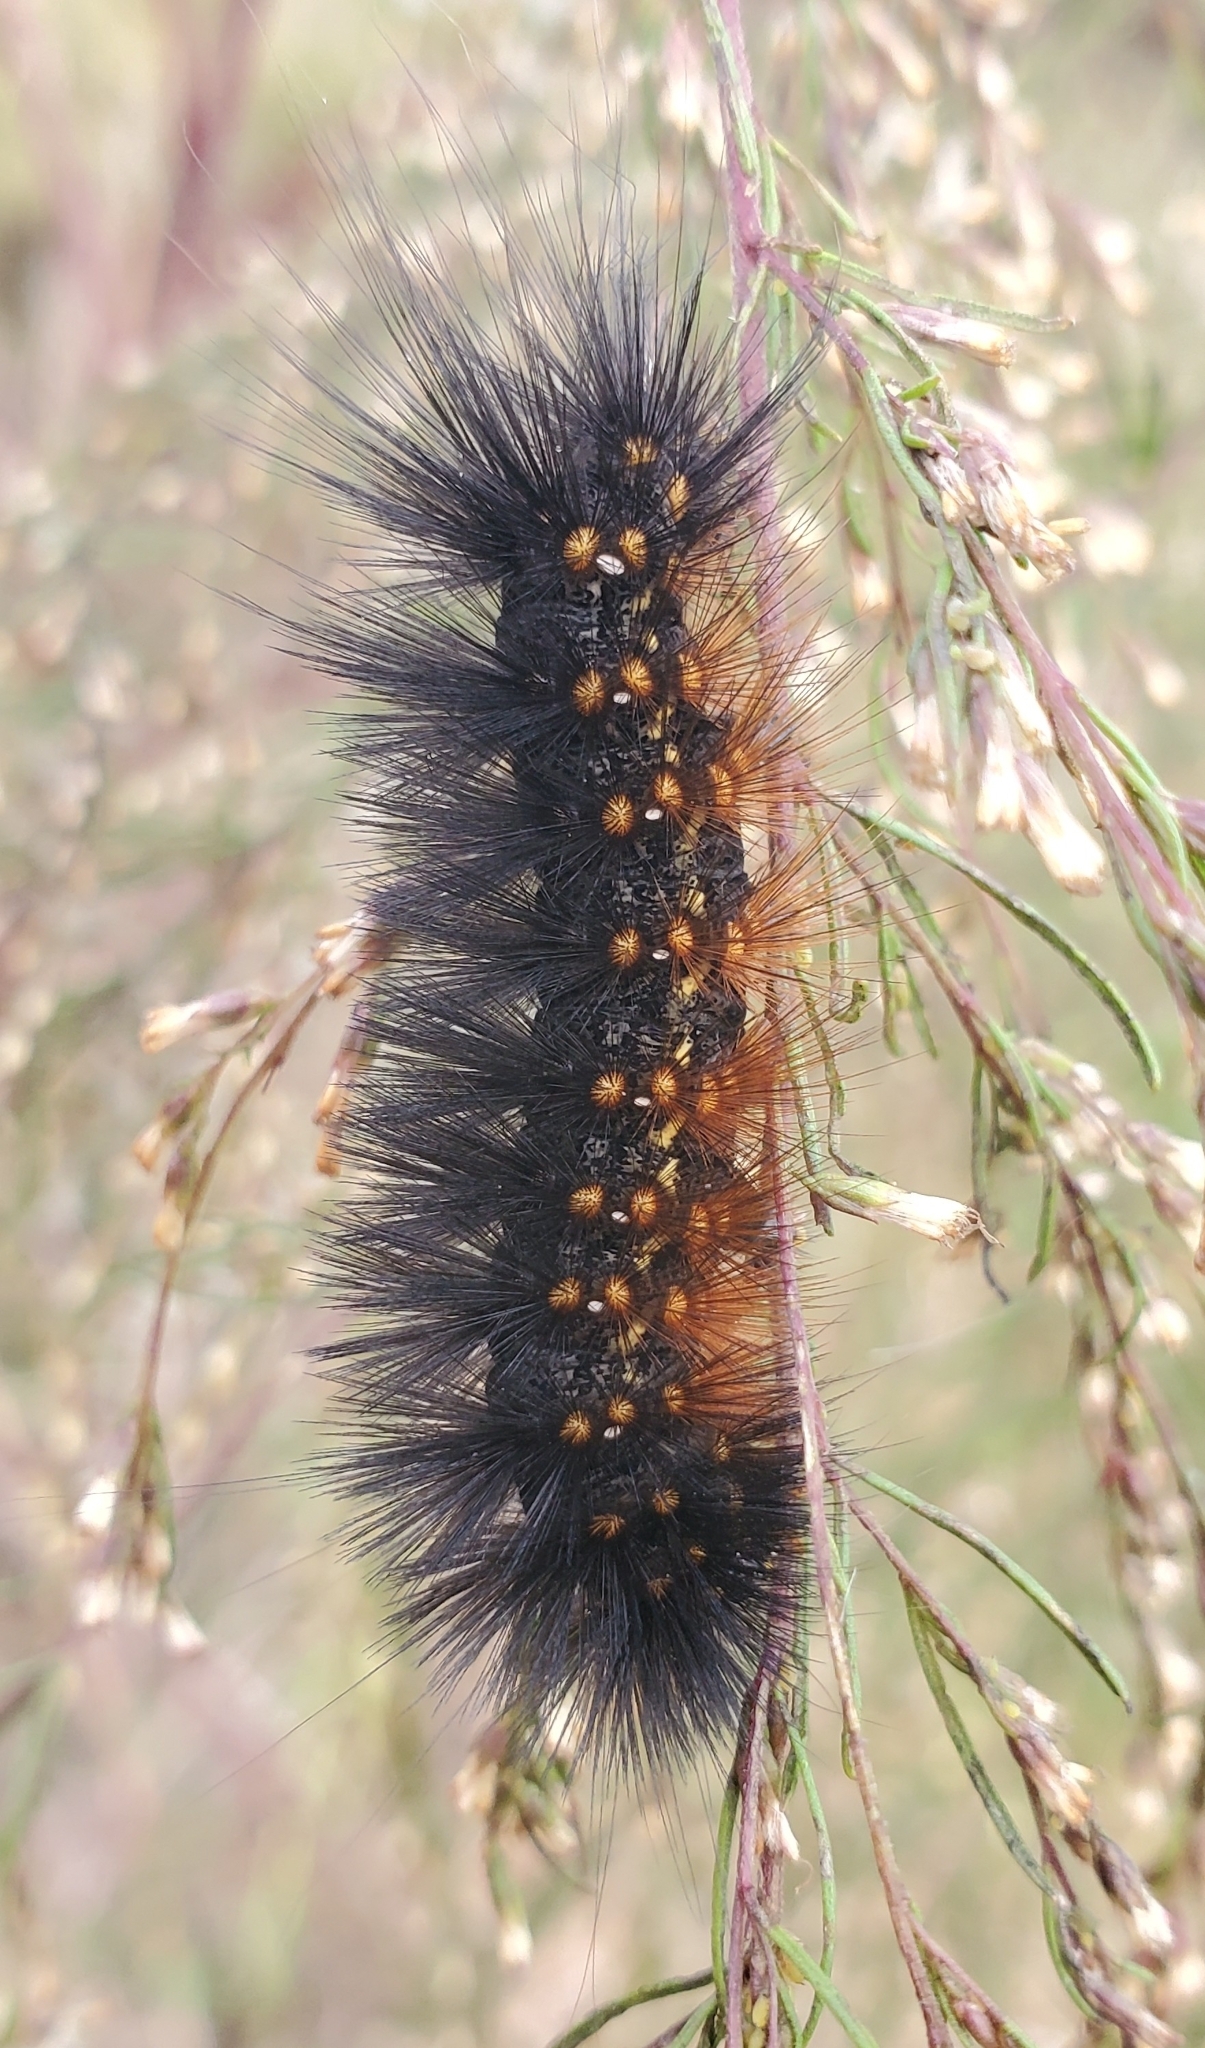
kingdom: Animalia
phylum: Arthropoda
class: Insecta
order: Lepidoptera
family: Erebidae
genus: Estigmene
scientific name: Estigmene acrea
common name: Salt marsh moth
